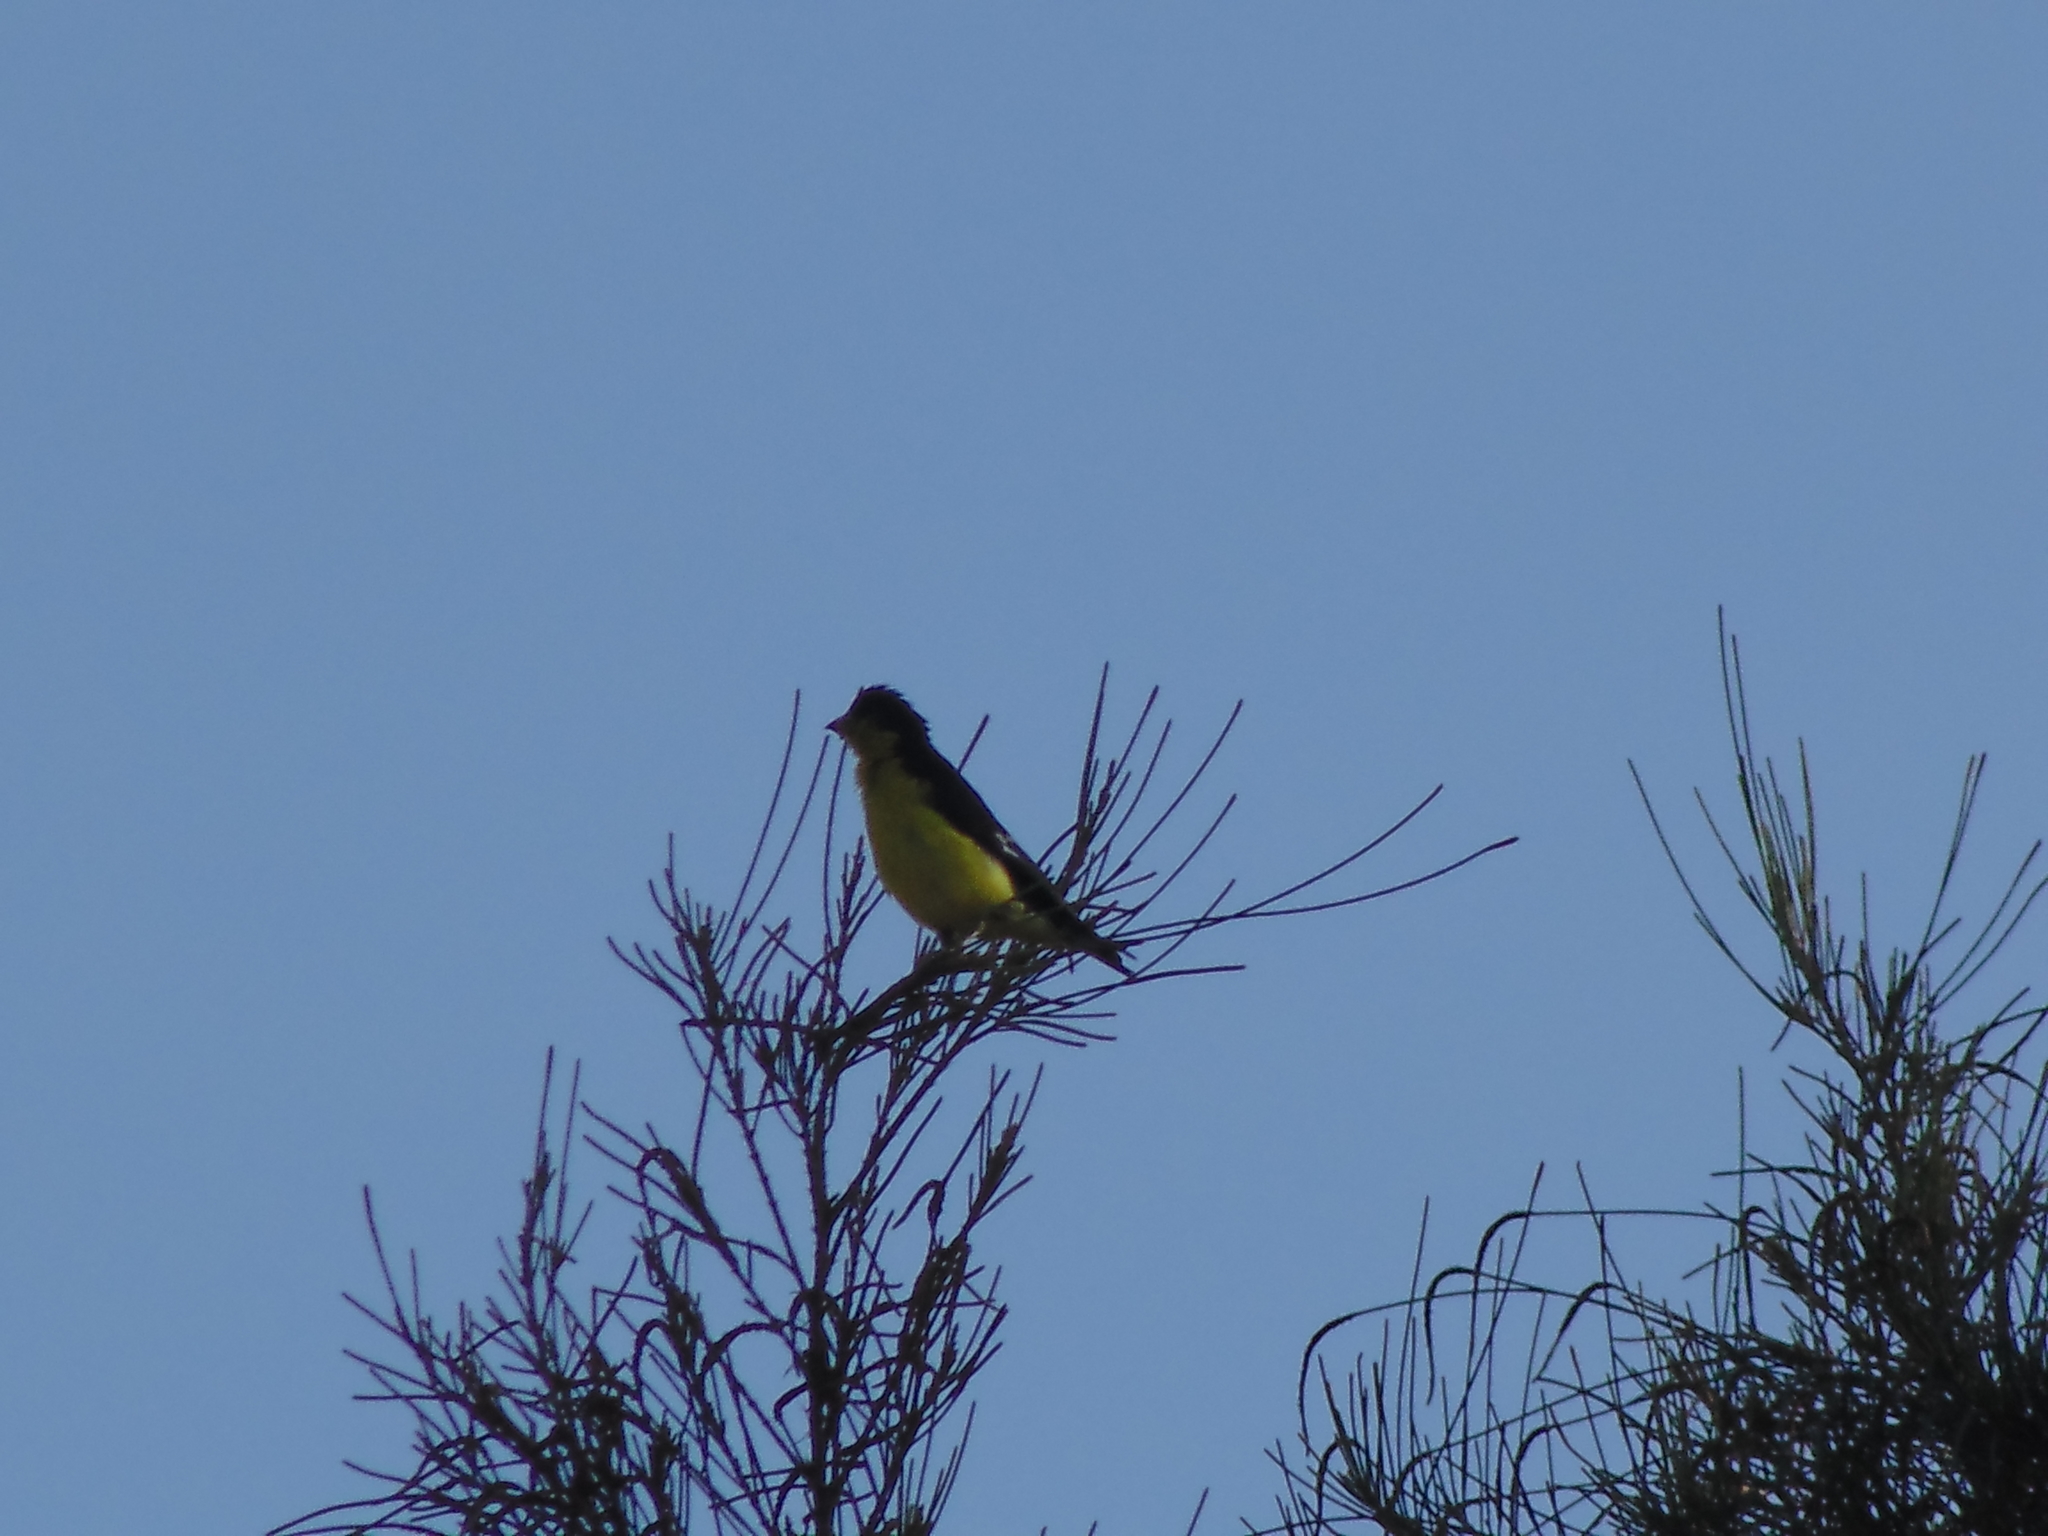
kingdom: Animalia
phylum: Chordata
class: Aves
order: Passeriformes
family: Fringillidae
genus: Spinus
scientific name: Spinus psaltria
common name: Lesser goldfinch
